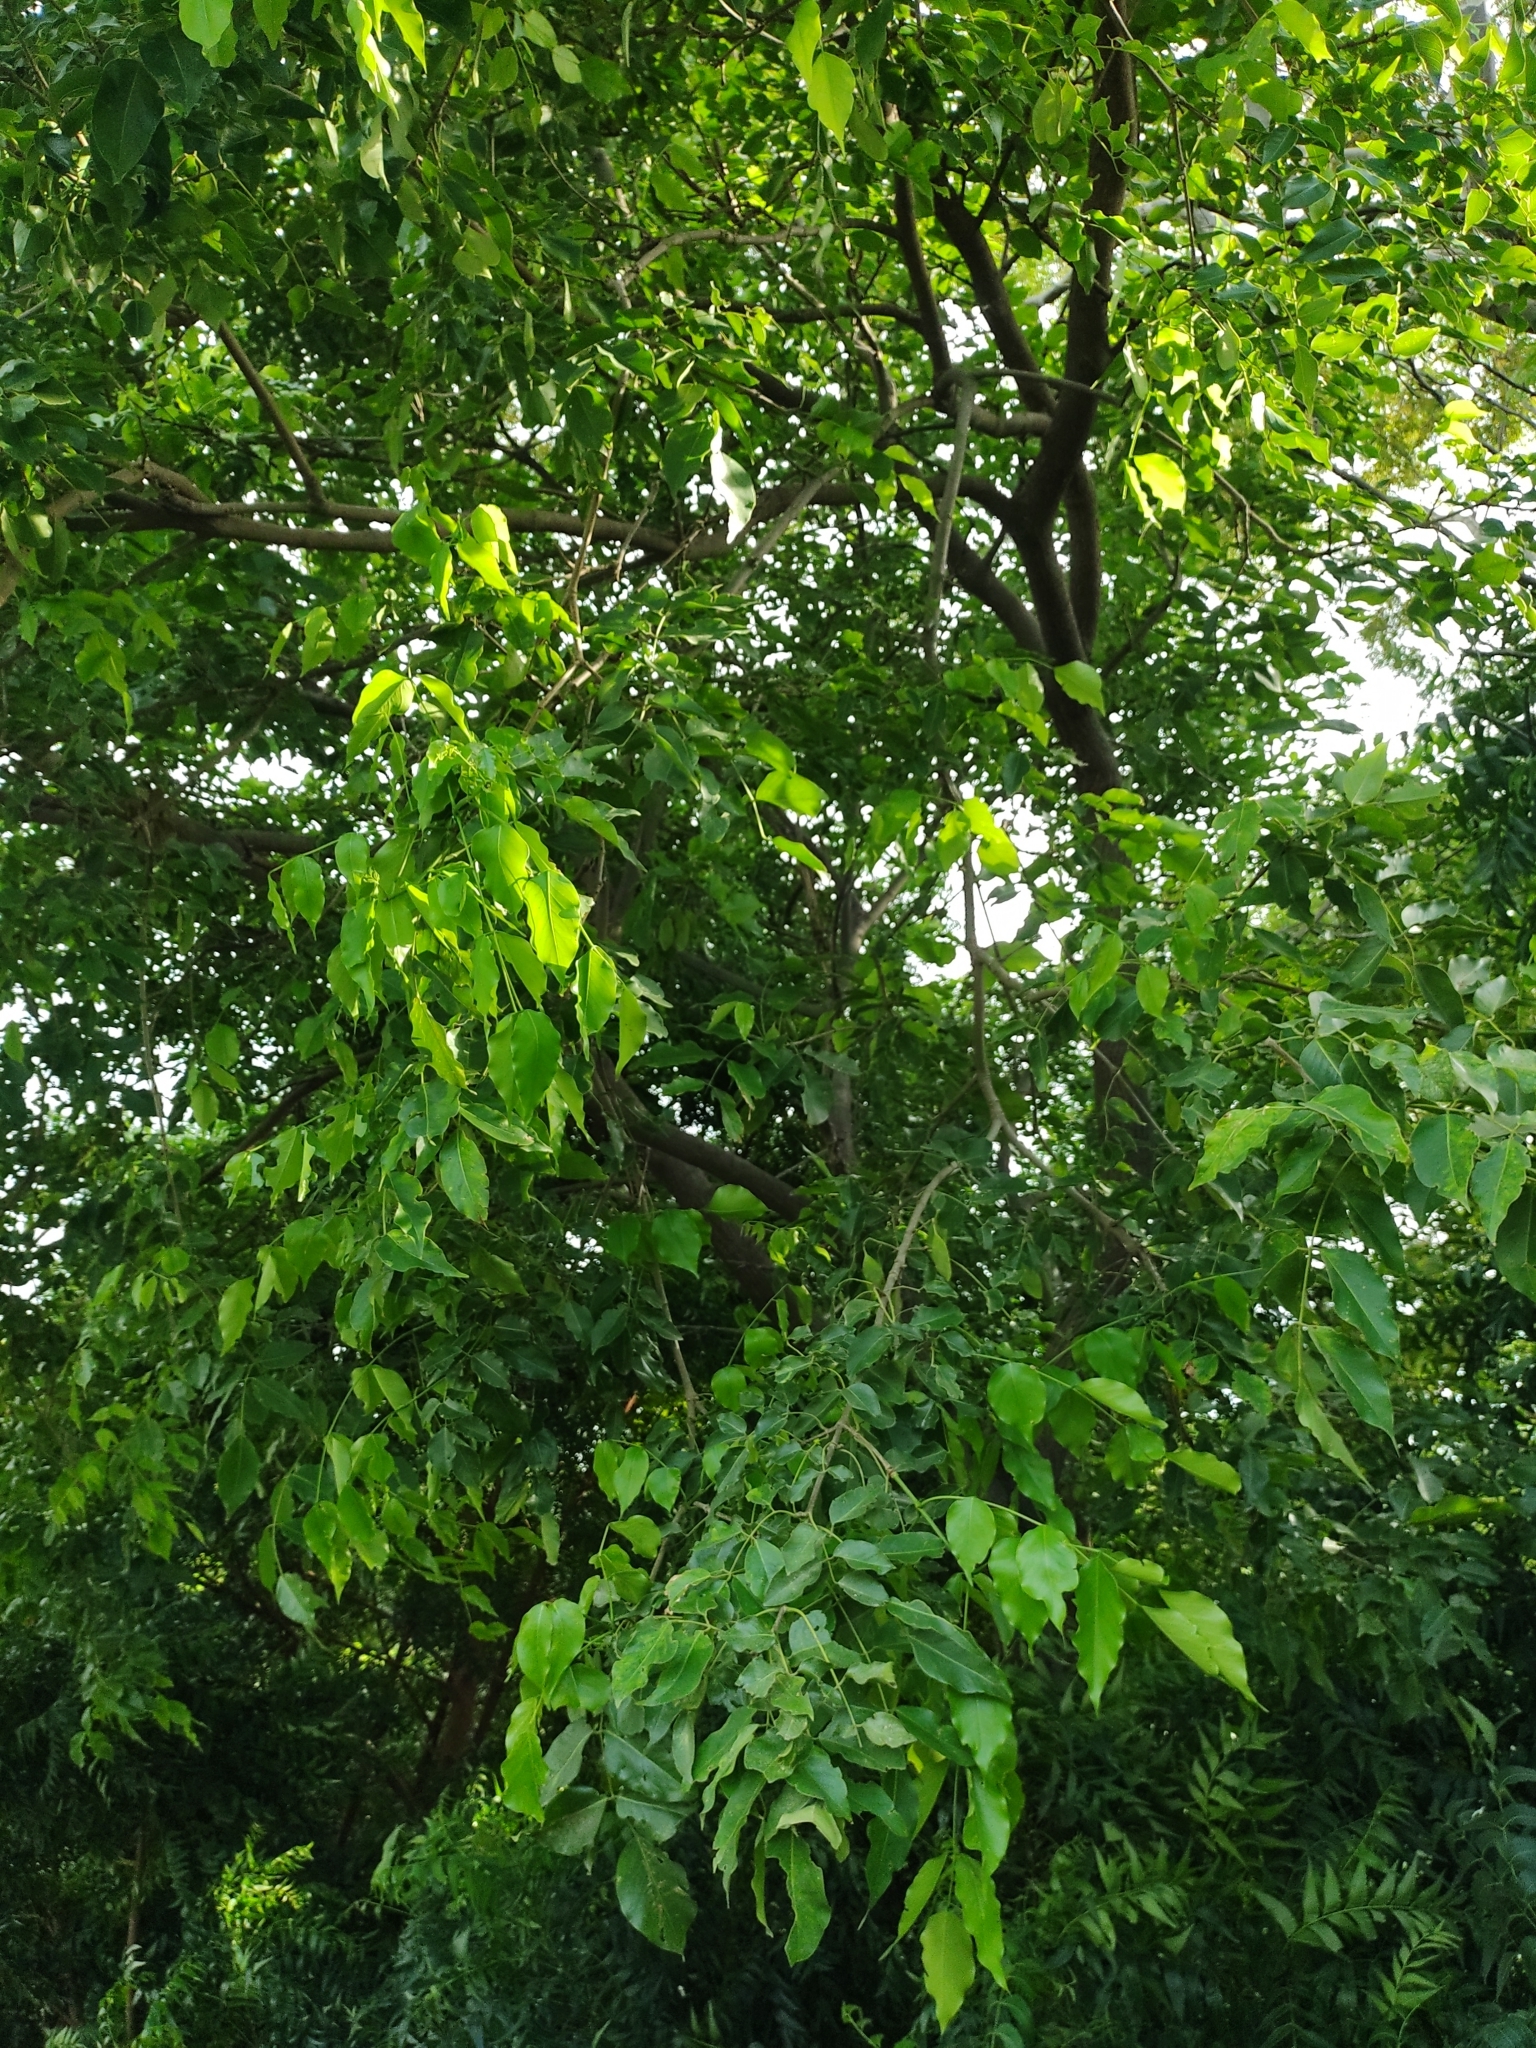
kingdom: Plantae
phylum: Tracheophyta
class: Magnoliopsida
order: Fabales
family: Fabaceae
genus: Platymiscium
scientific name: Platymiscium pinnatum
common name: Panama redwood
